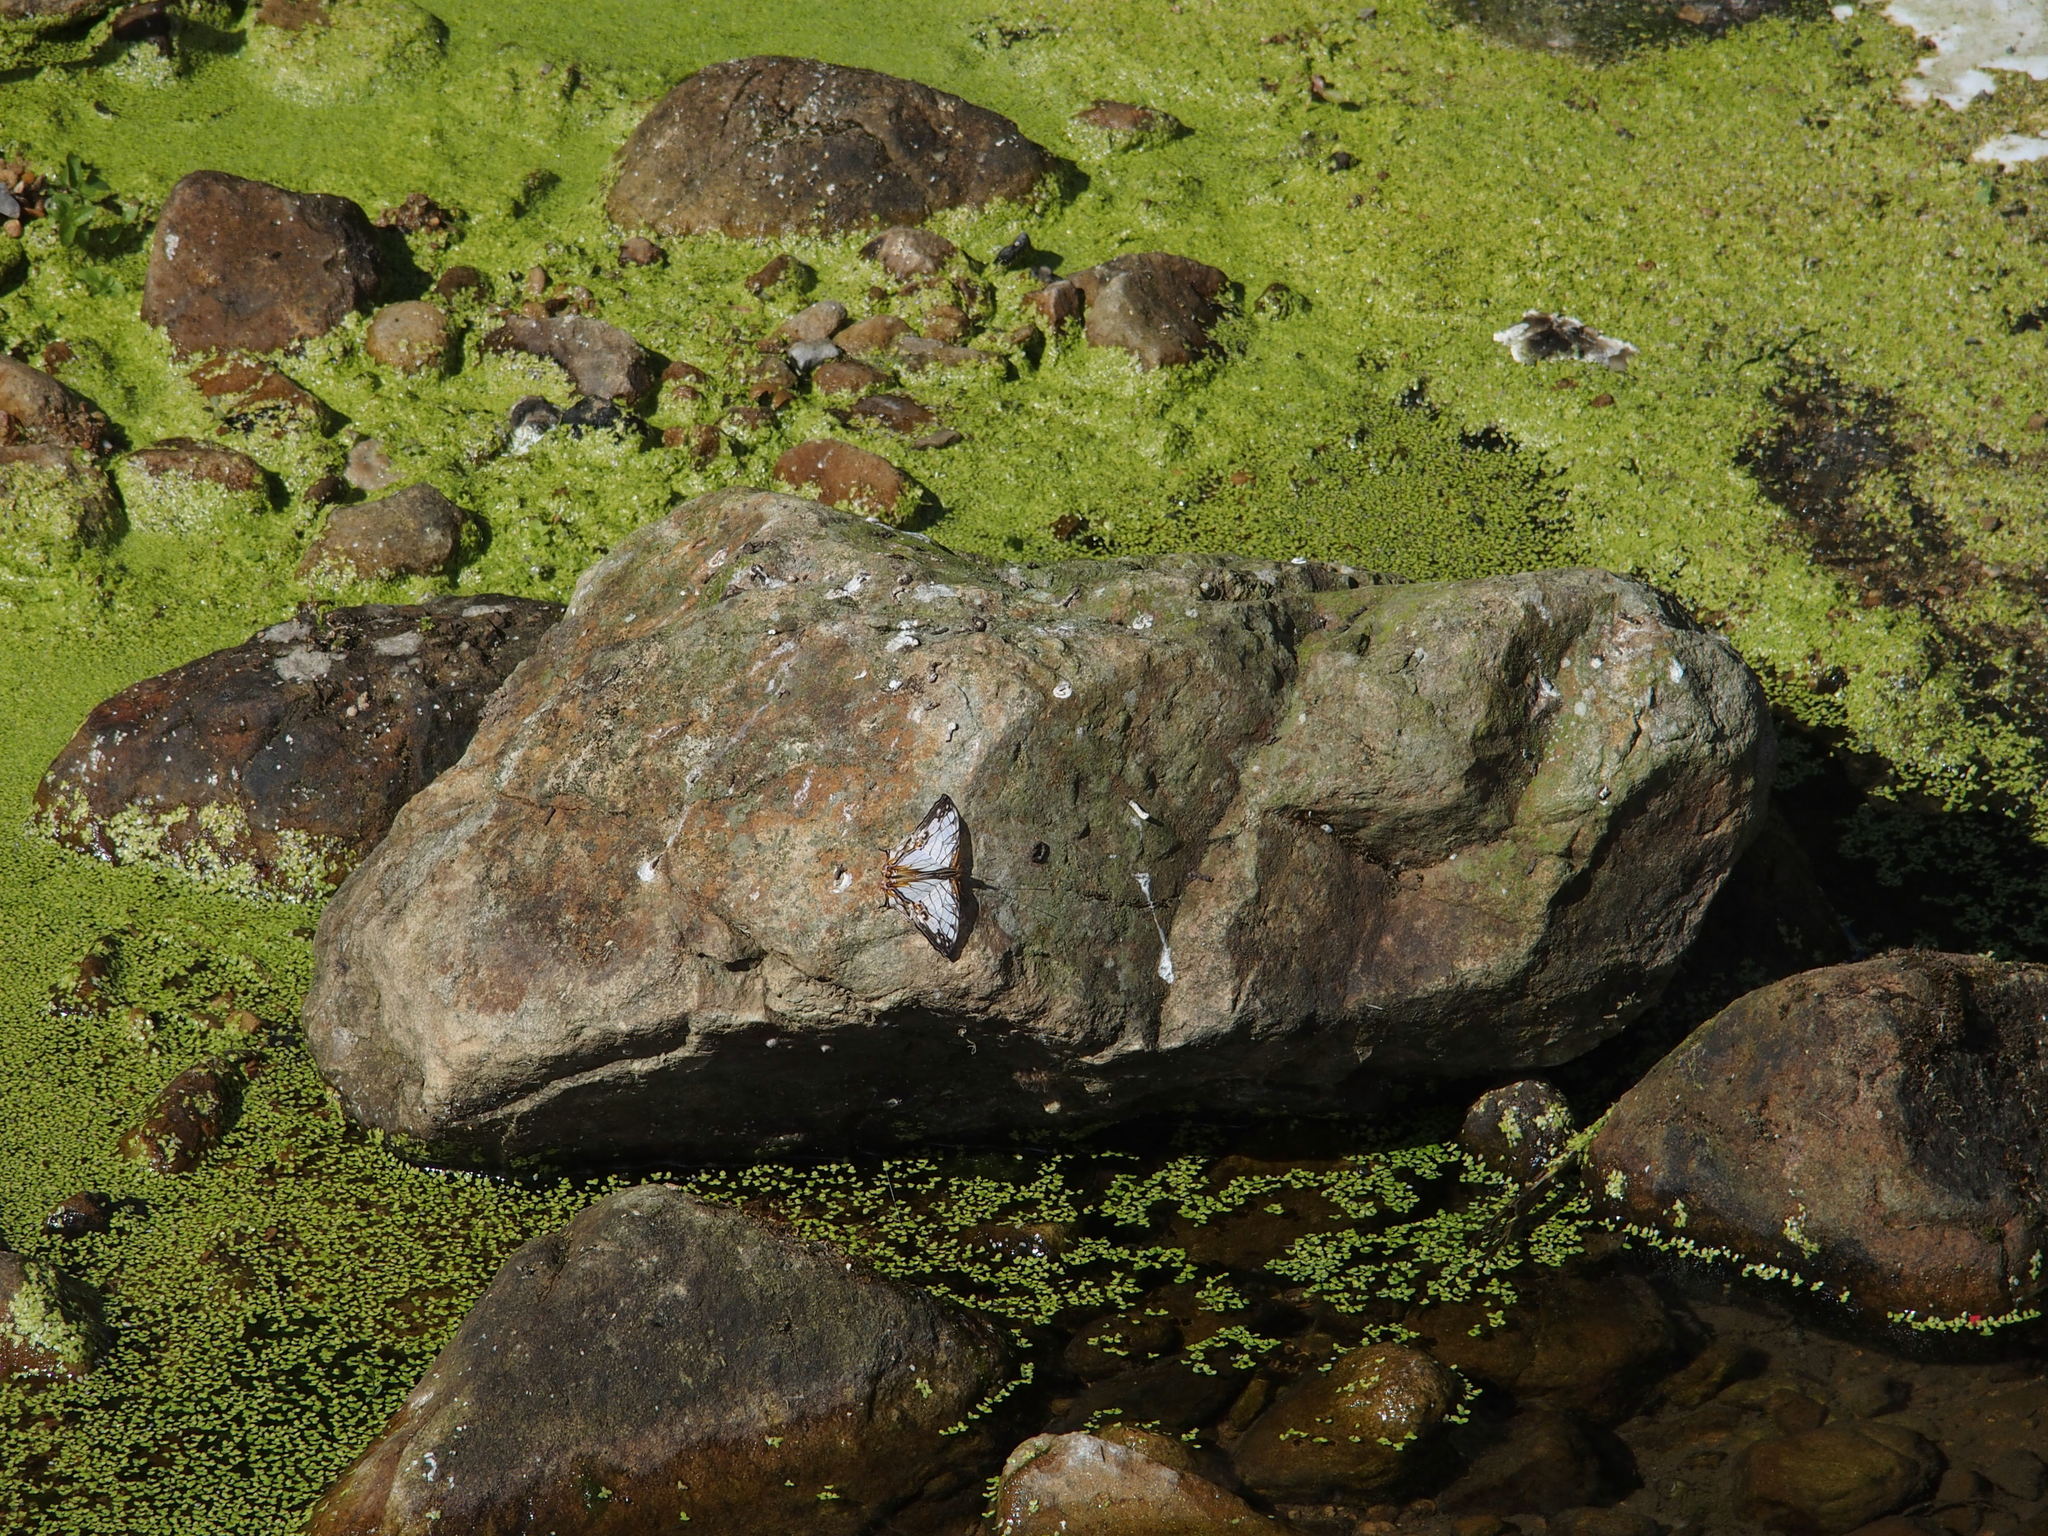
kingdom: Animalia
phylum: Arthropoda
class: Insecta
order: Lepidoptera
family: Nymphalidae
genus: Cyrestis
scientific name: Cyrestis thyodamas
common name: Common mapwing
